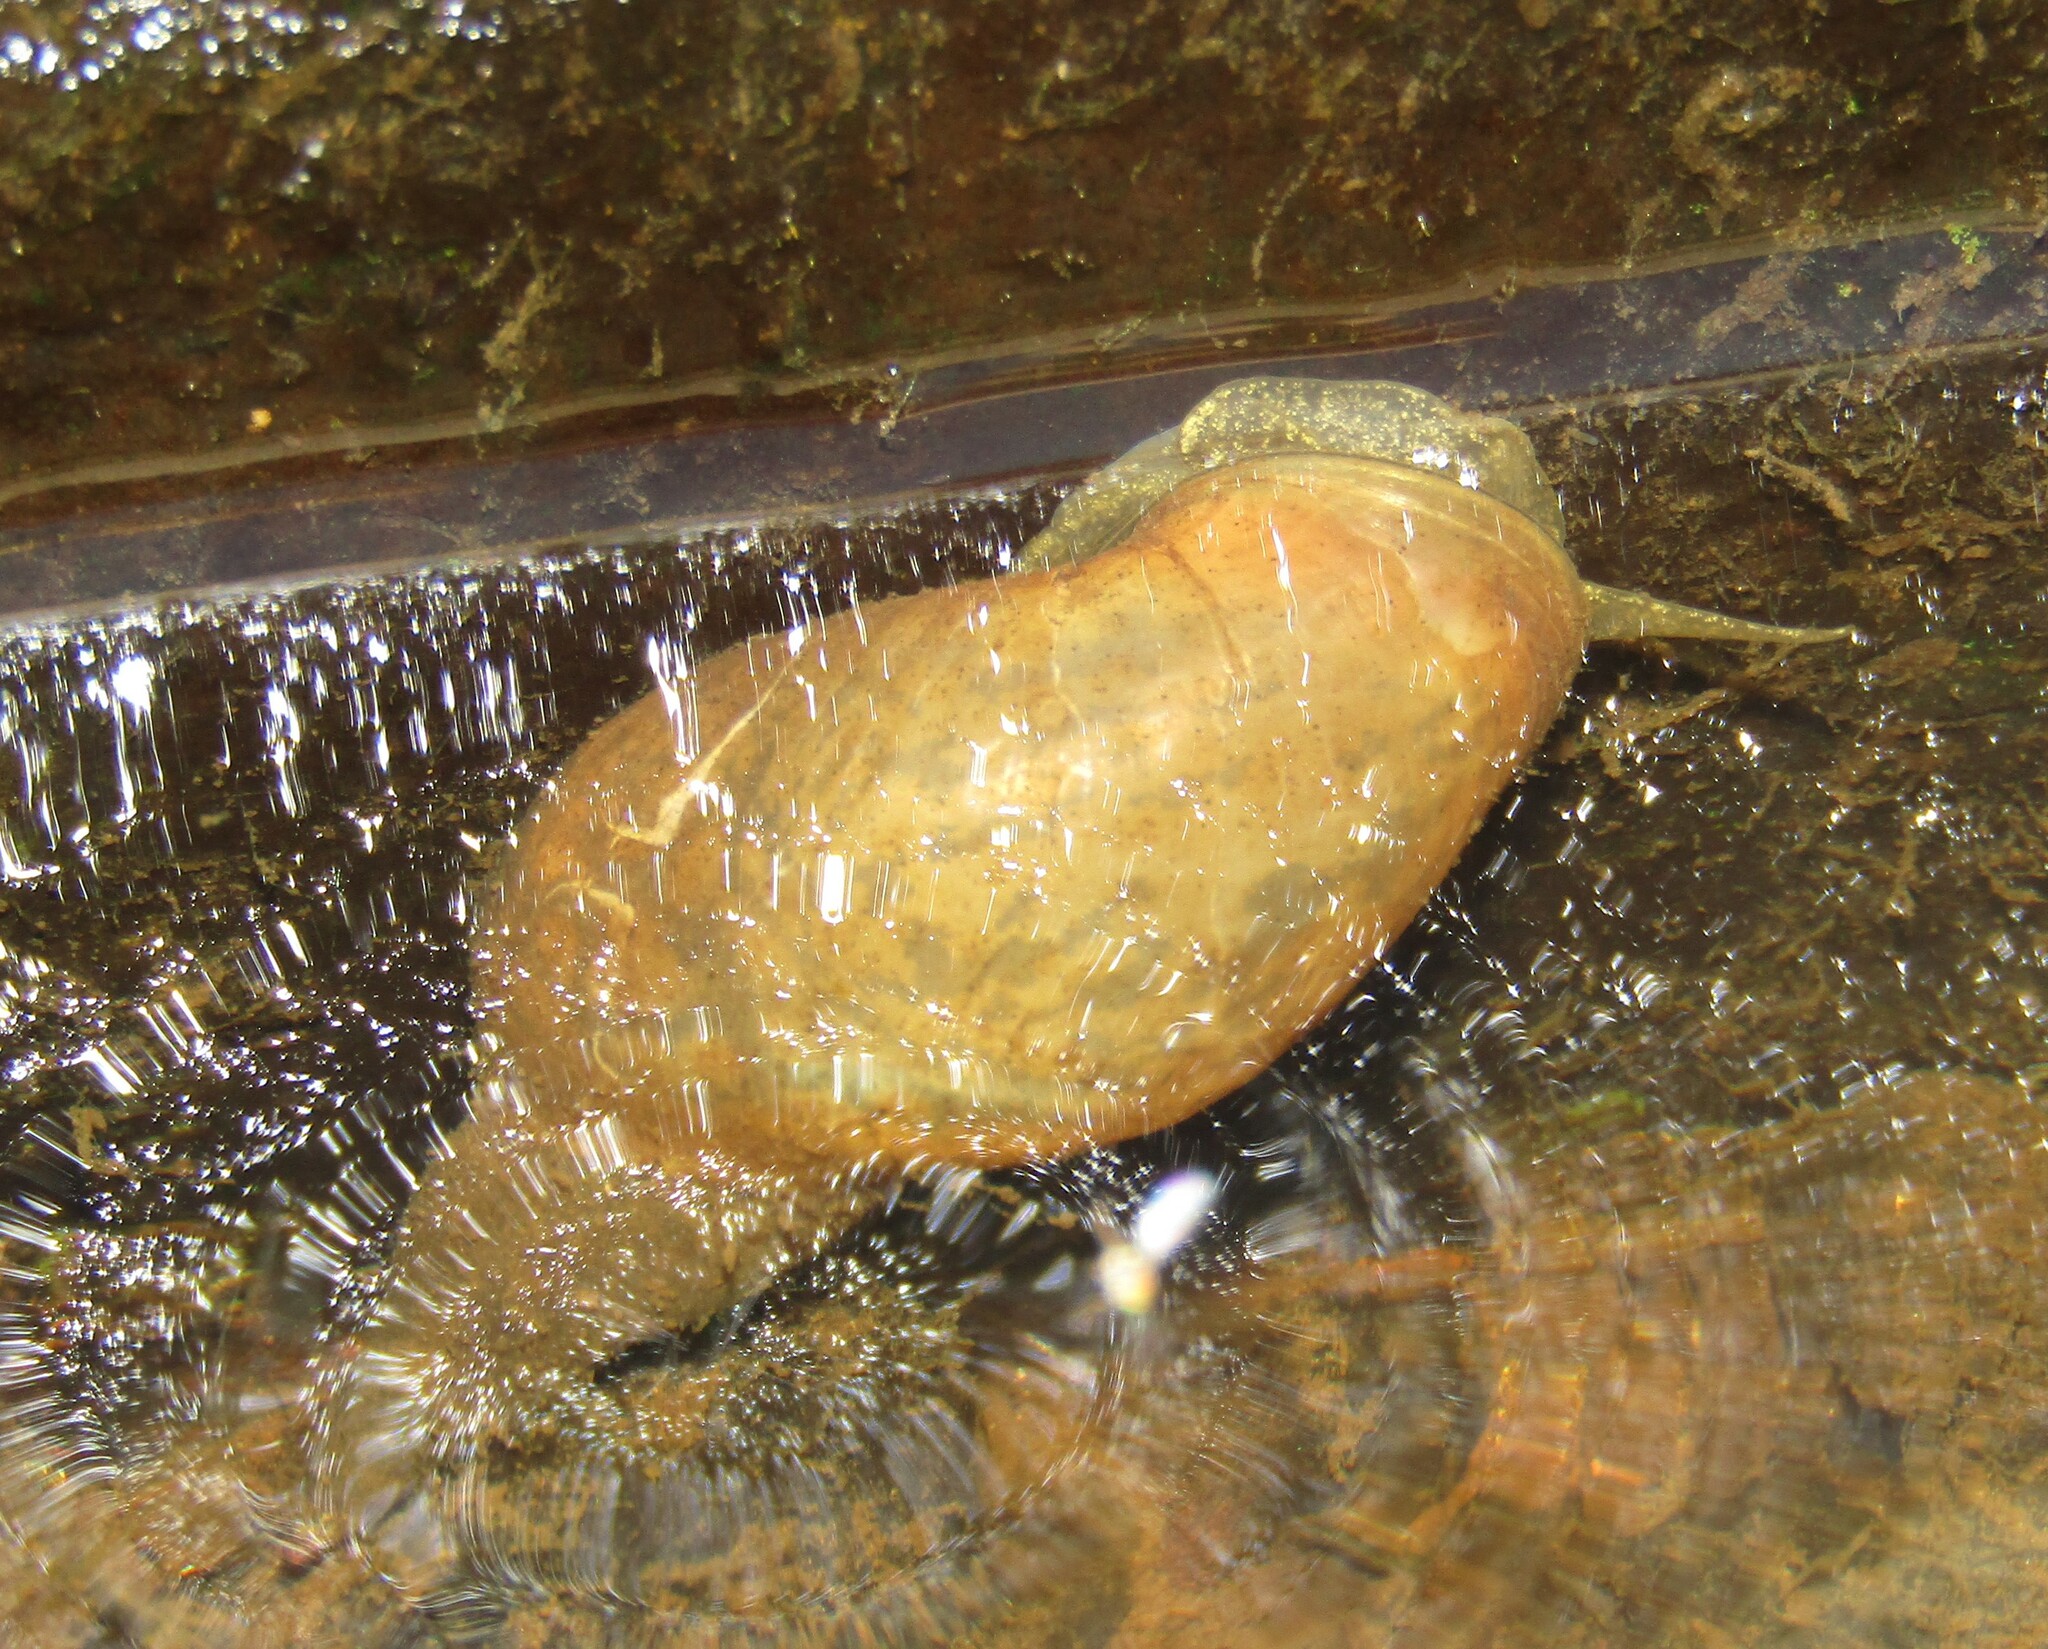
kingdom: Animalia
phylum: Mollusca
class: Gastropoda
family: Lymnaeidae
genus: Lymnaea
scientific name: Lymnaea stagnalis
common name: Great pond snail
